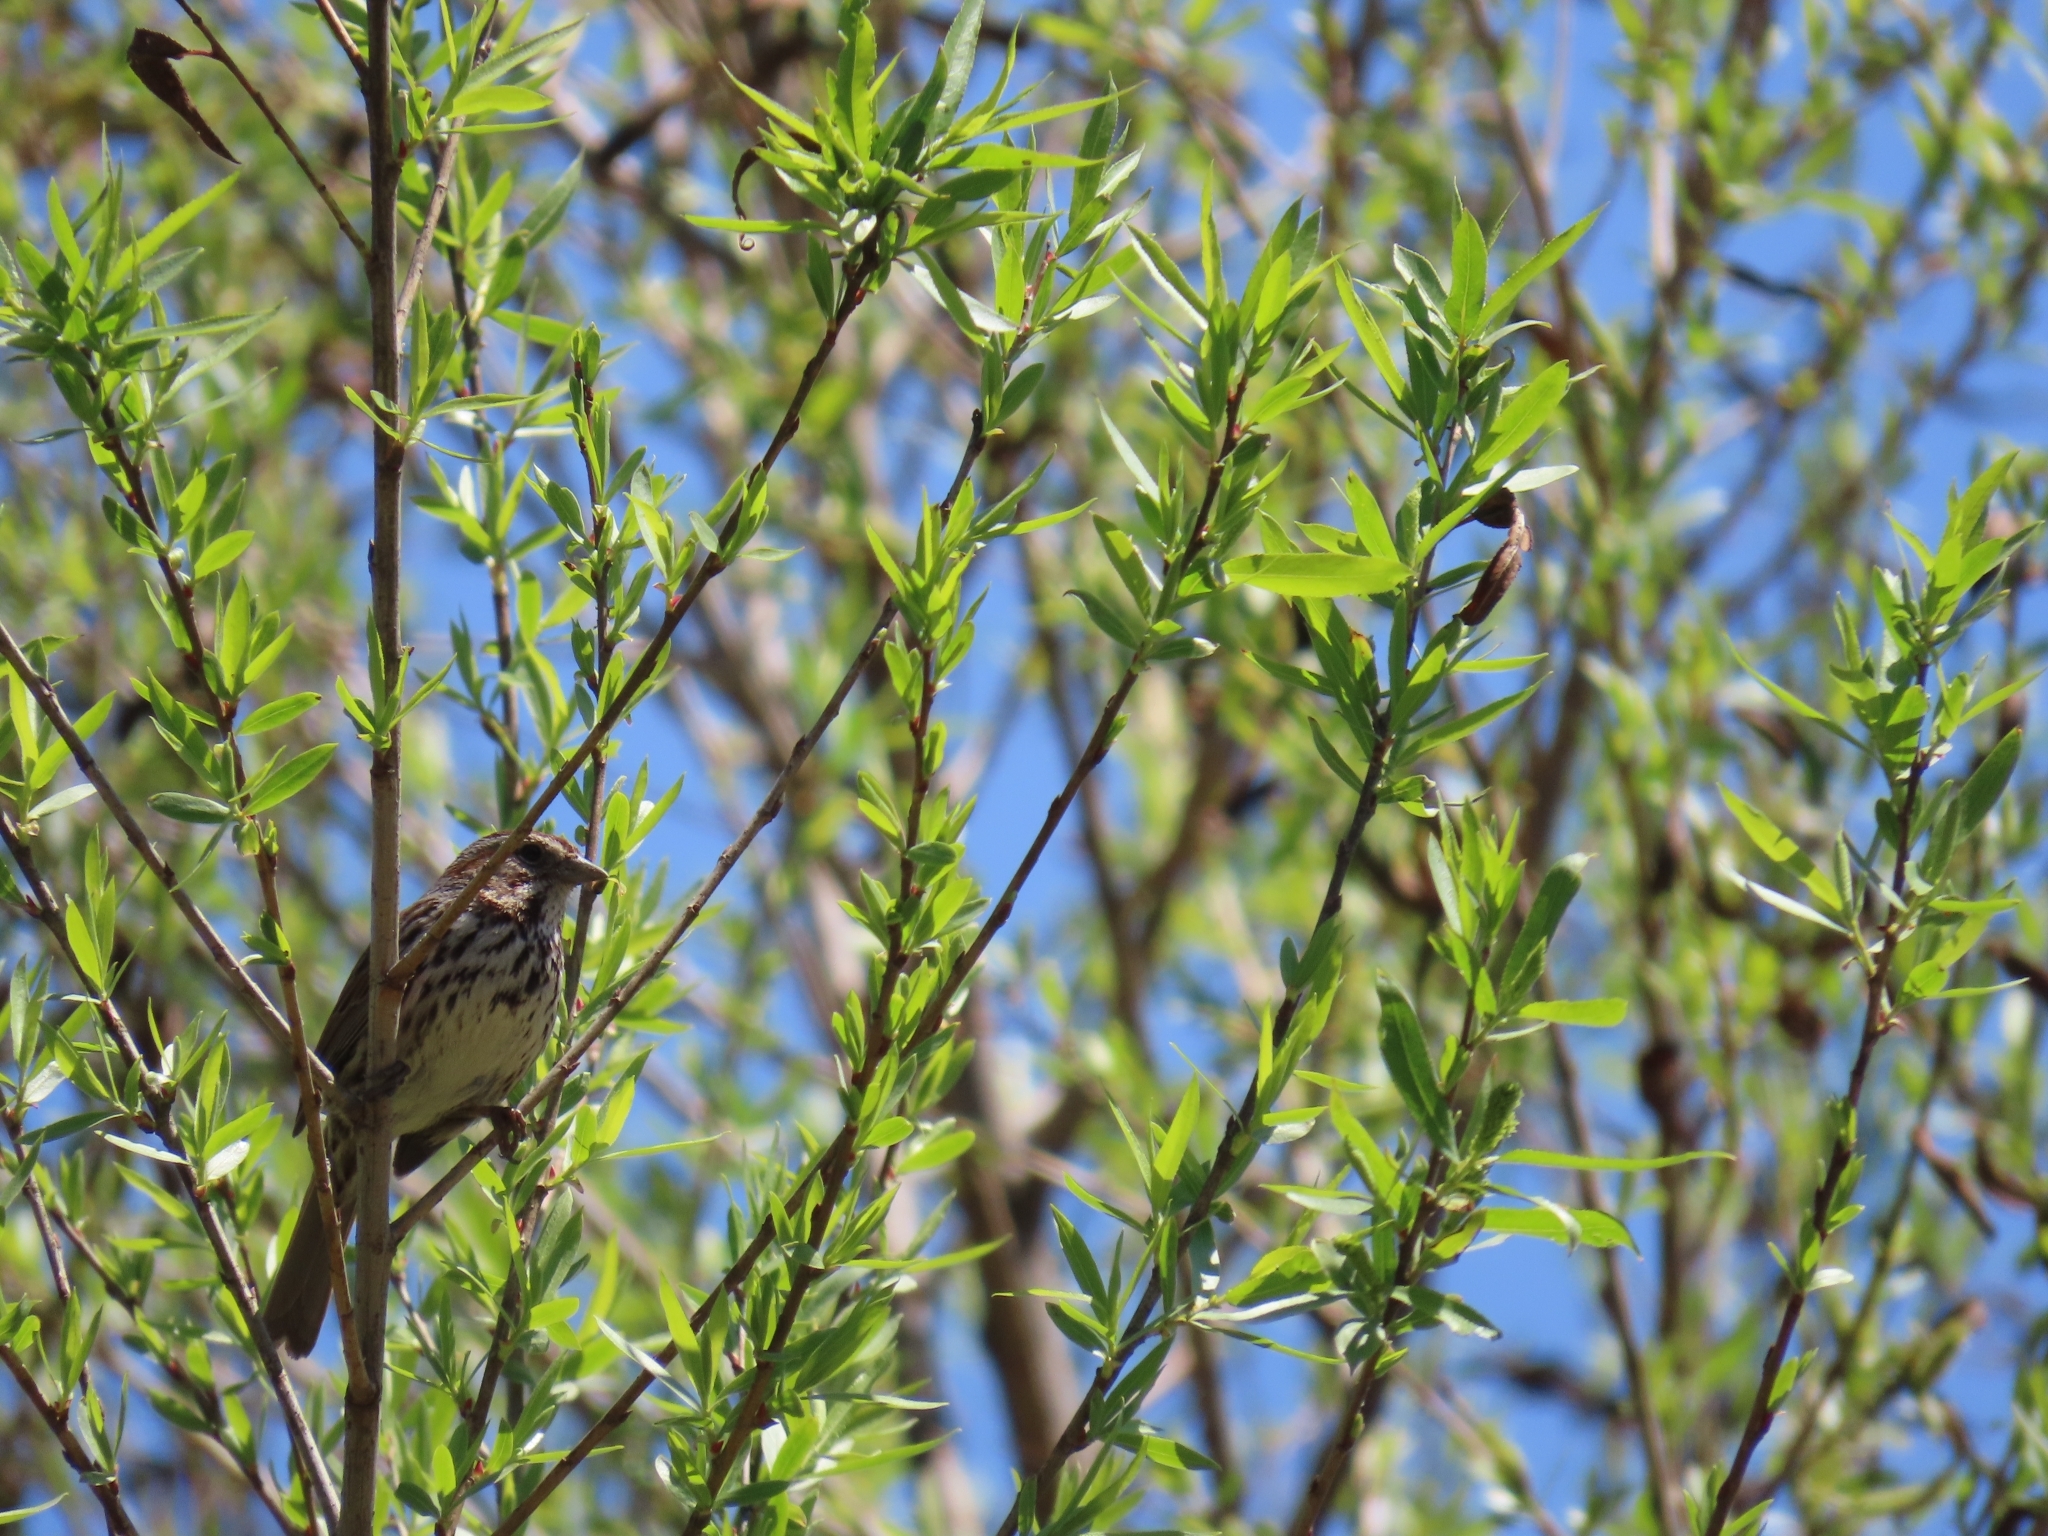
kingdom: Animalia
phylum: Chordata
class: Aves
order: Passeriformes
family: Passerellidae
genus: Melospiza
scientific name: Melospiza melodia
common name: Song sparrow
